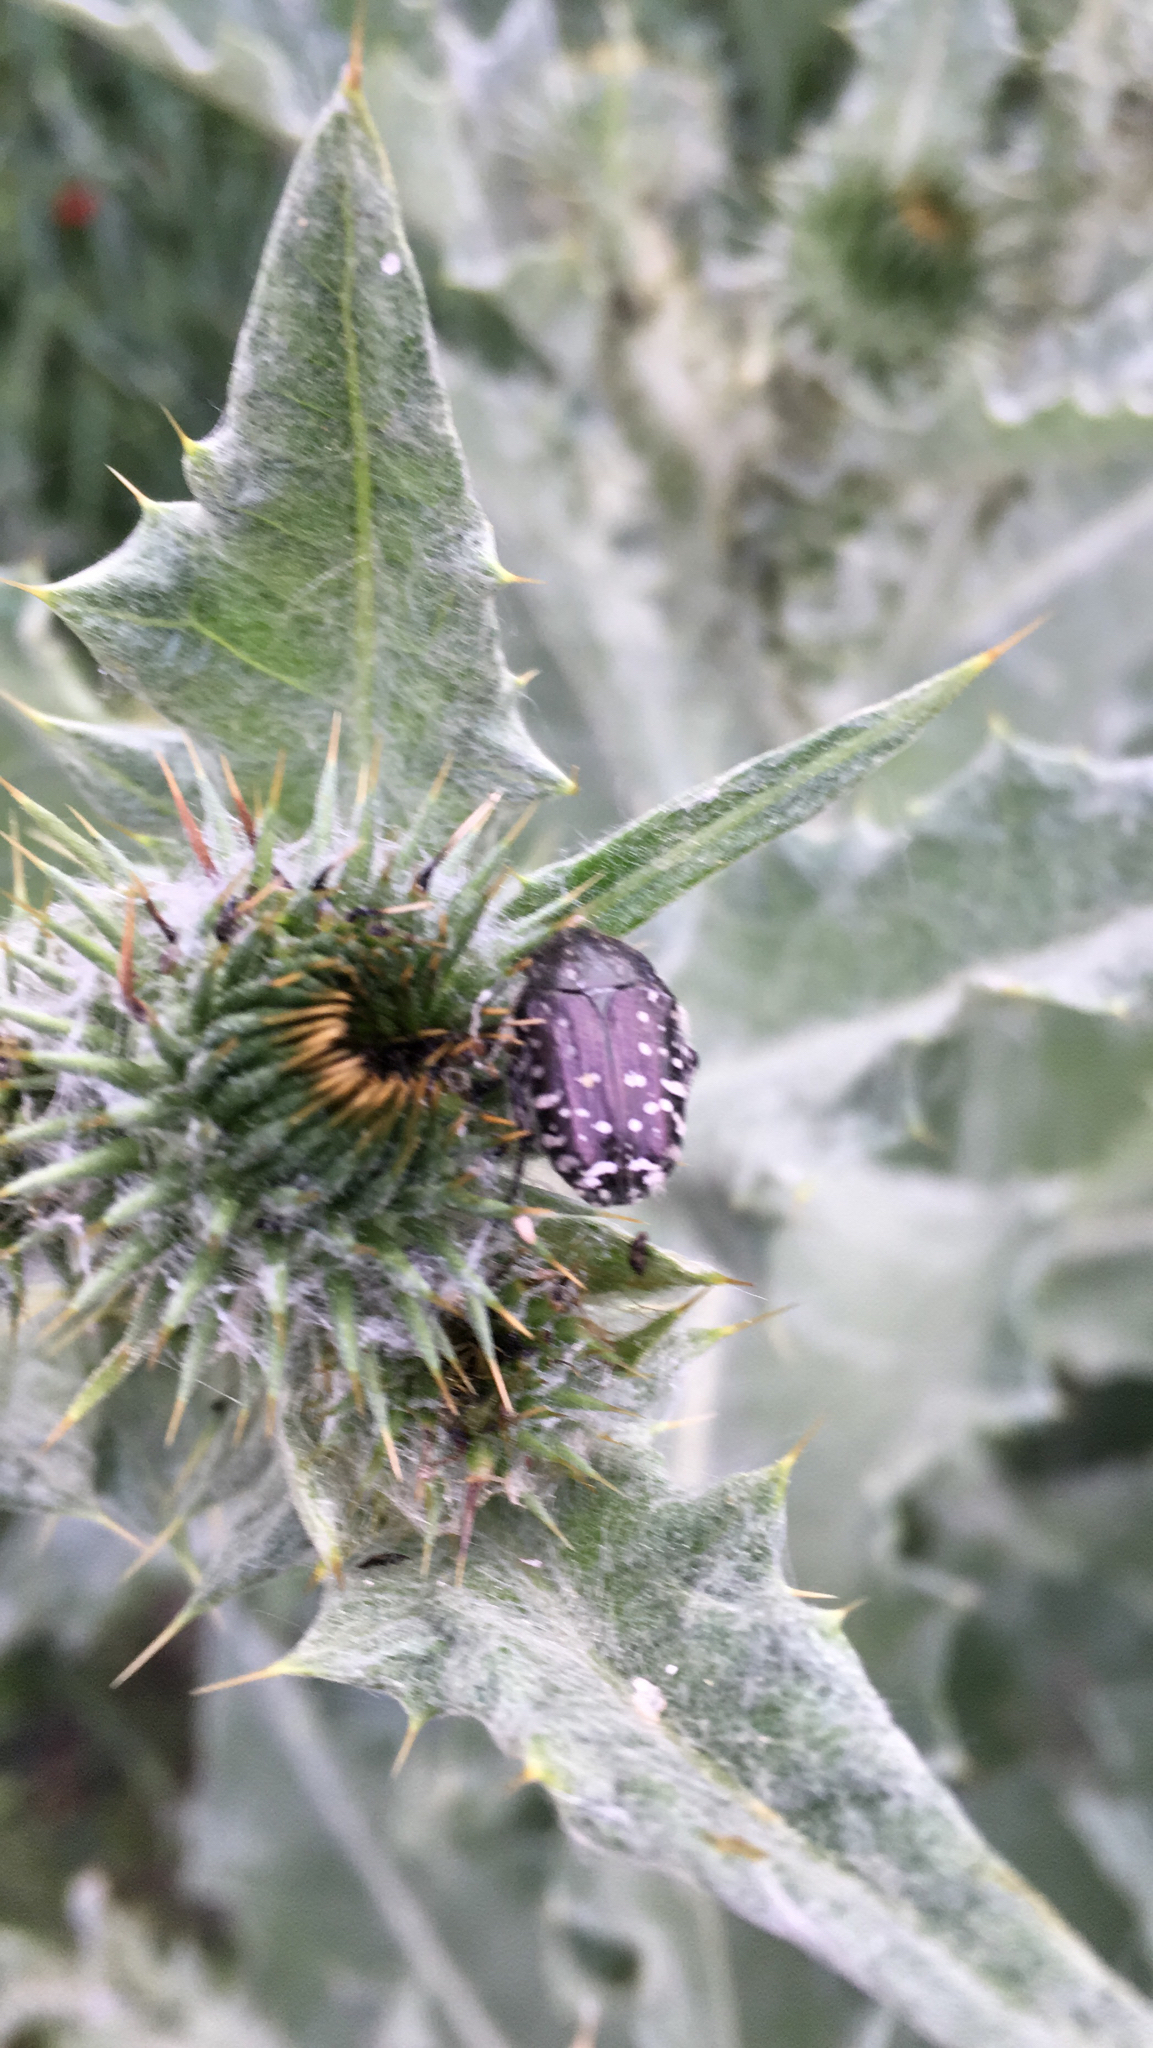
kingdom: Animalia
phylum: Arthropoda
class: Insecta
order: Coleoptera
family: Scarabaeidae
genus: Oxythyrea
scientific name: Oxythyrea funesta
